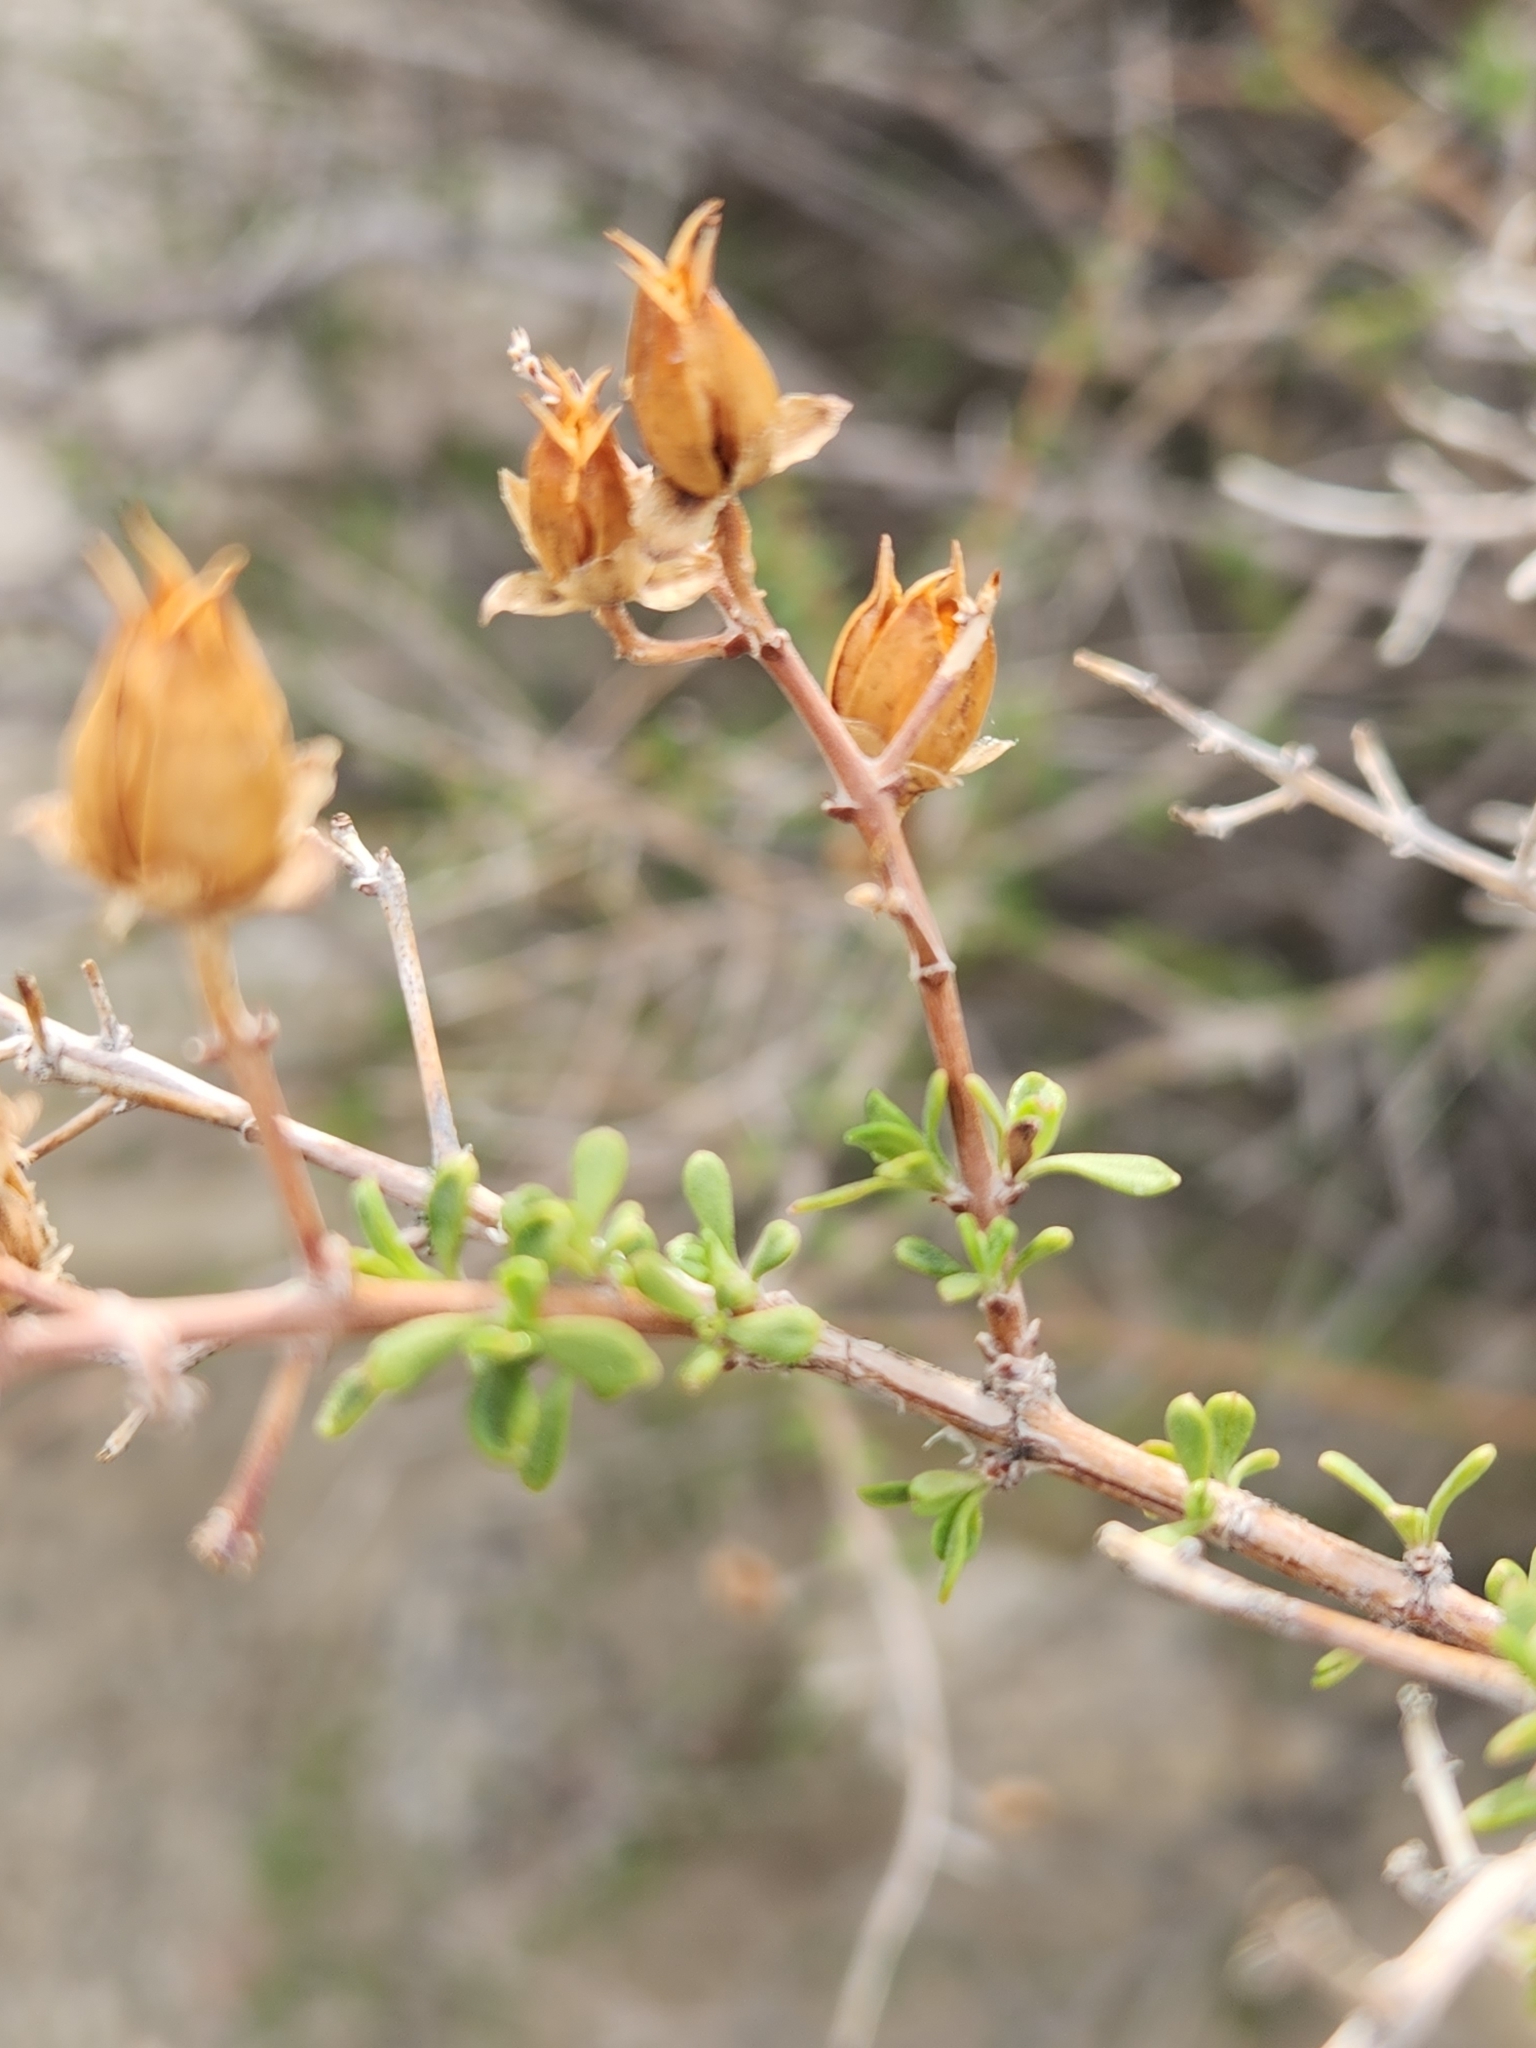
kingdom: Plantae
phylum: Tracheophyta
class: Magnoliopsida
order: Lamiales
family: Plantaginaceae
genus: Keckiella
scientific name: Keckiella antirrhinoides
